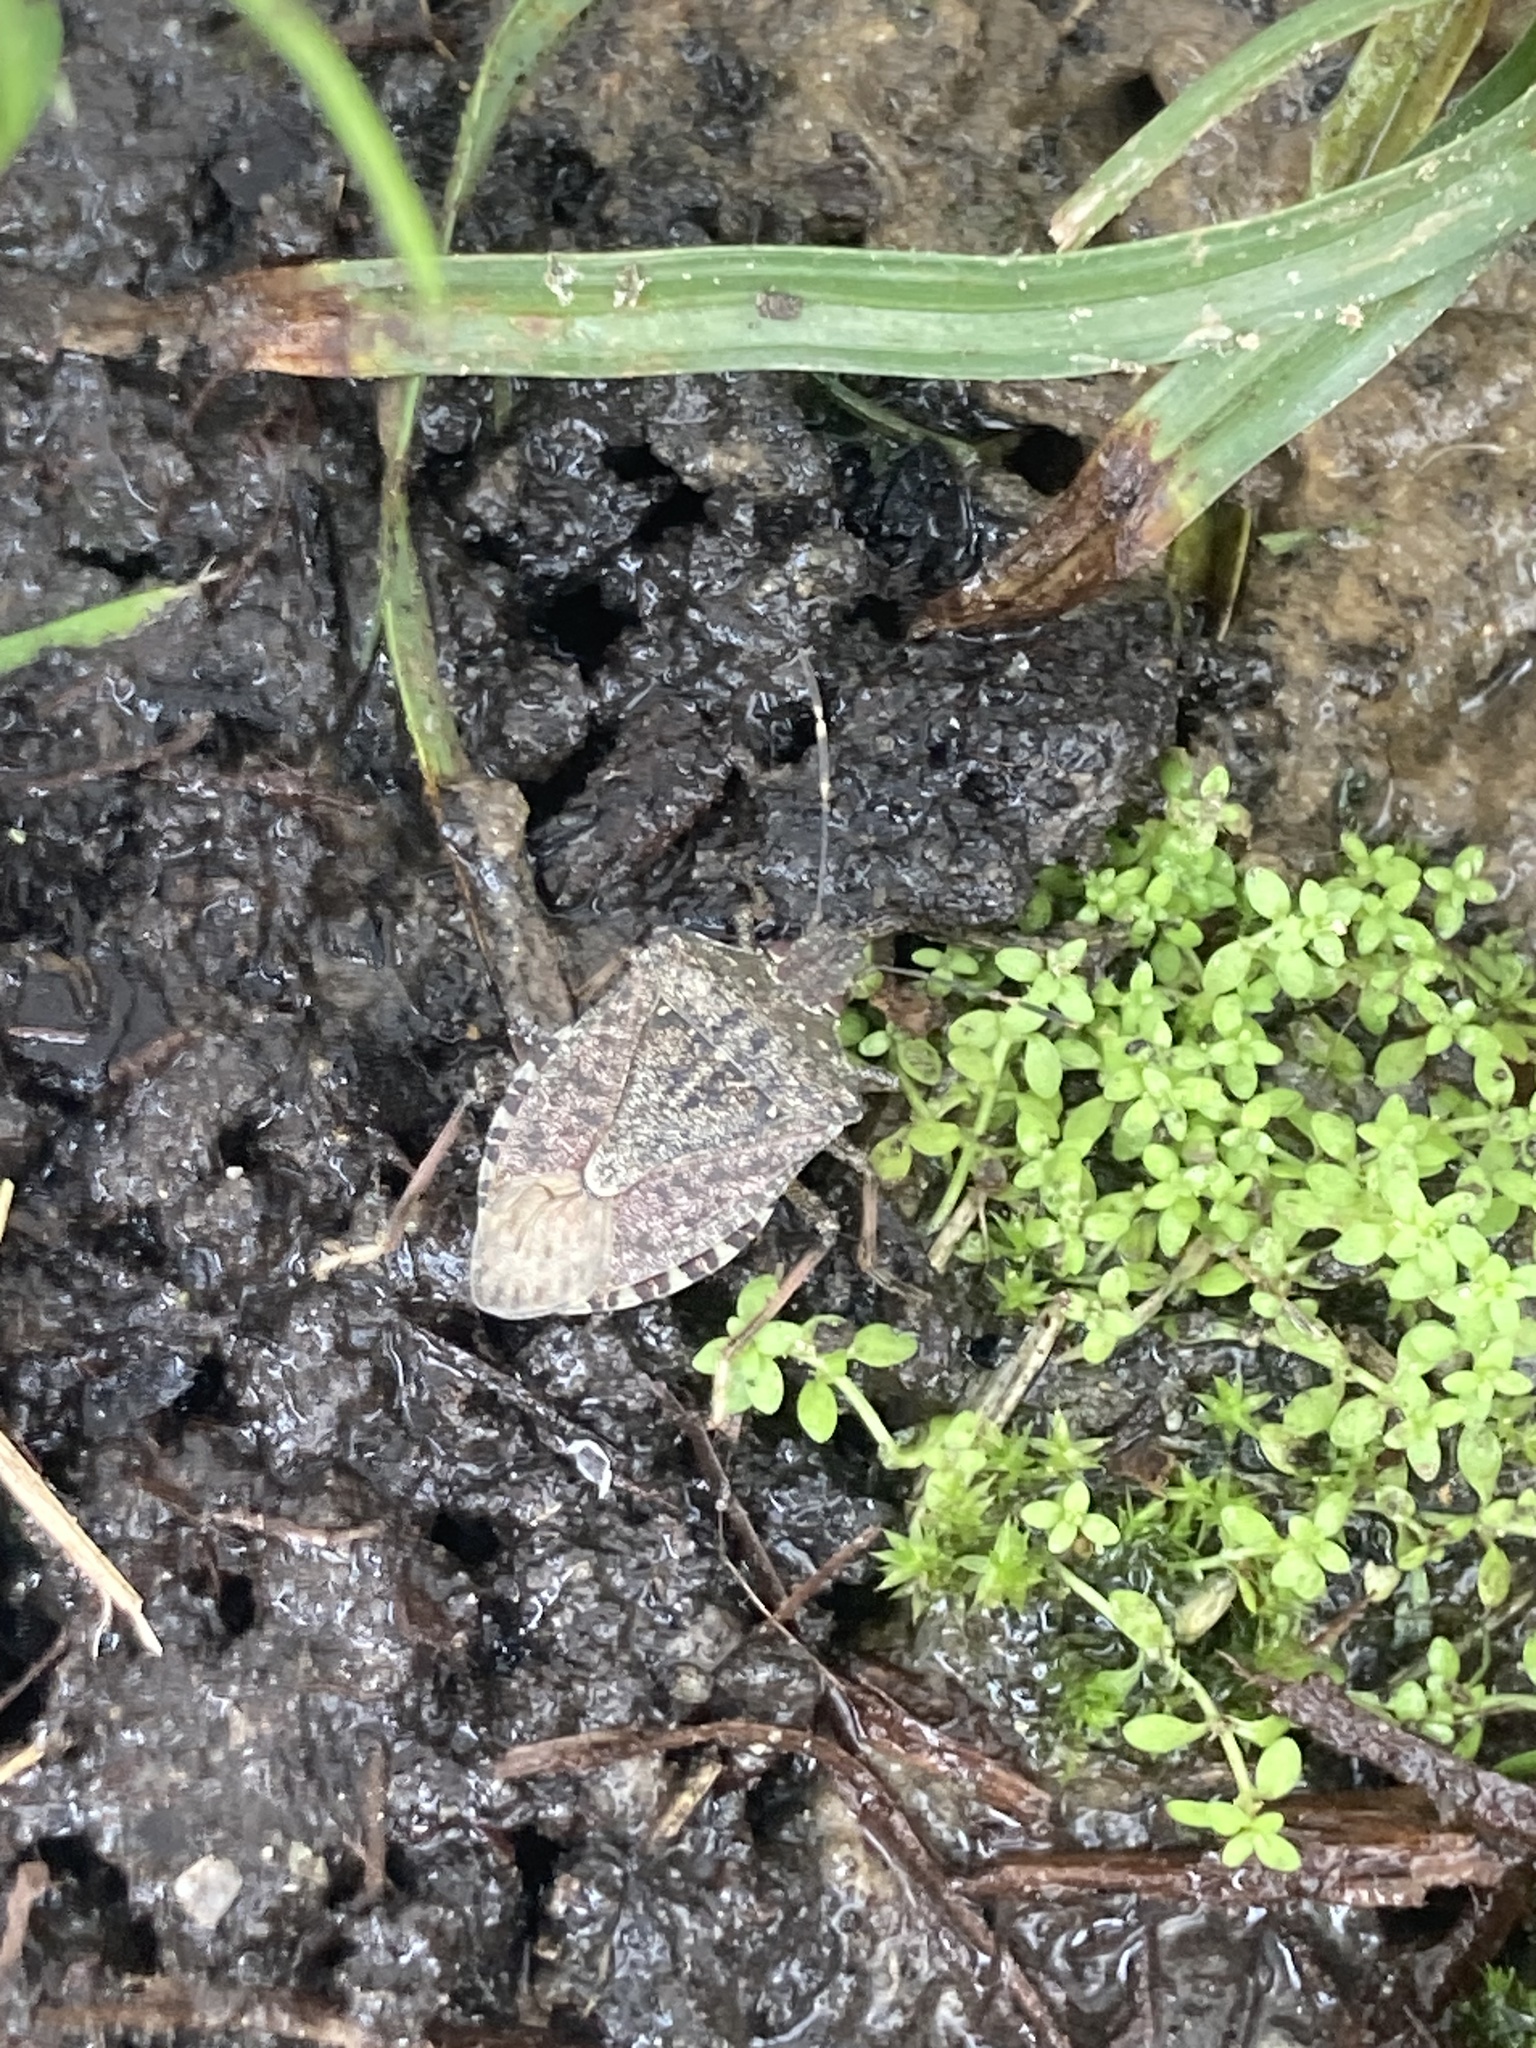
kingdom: Animalia
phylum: Arthropoda
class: Insecta
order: Hemiptera
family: Pentatomidae
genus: Halyomorpha
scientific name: Halyomorpha halys
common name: Brown marmorated stink bug
